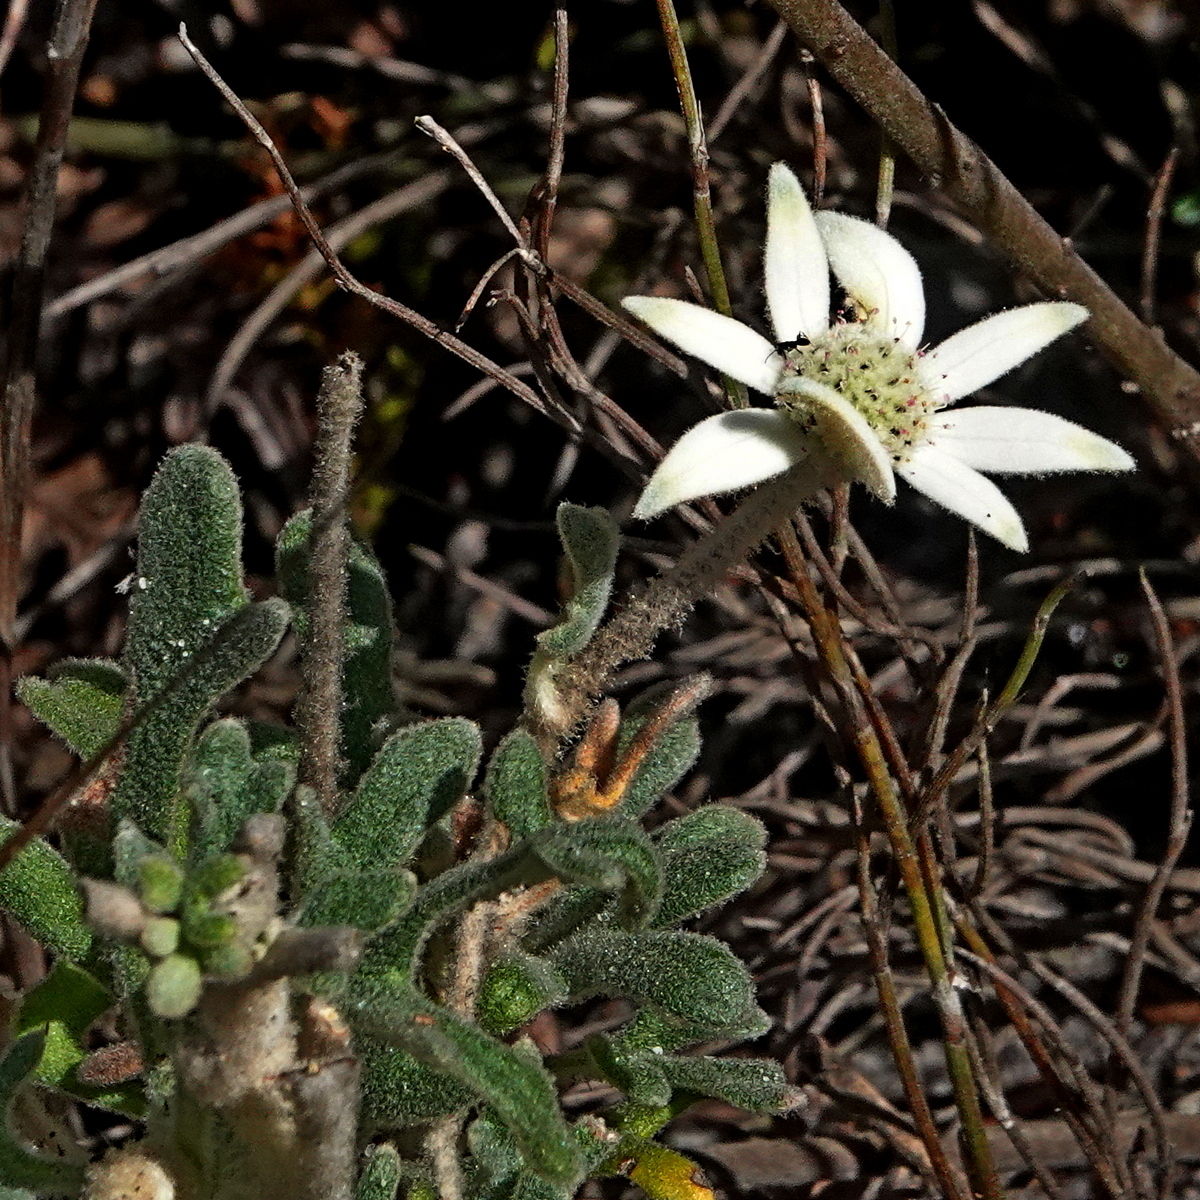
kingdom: Plantae
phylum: Tracheophyta
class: Magnoliopsida
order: Apiales
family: Apiaceae
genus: Actinotus
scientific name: Actinotus helianthi
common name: Flannel-flower
